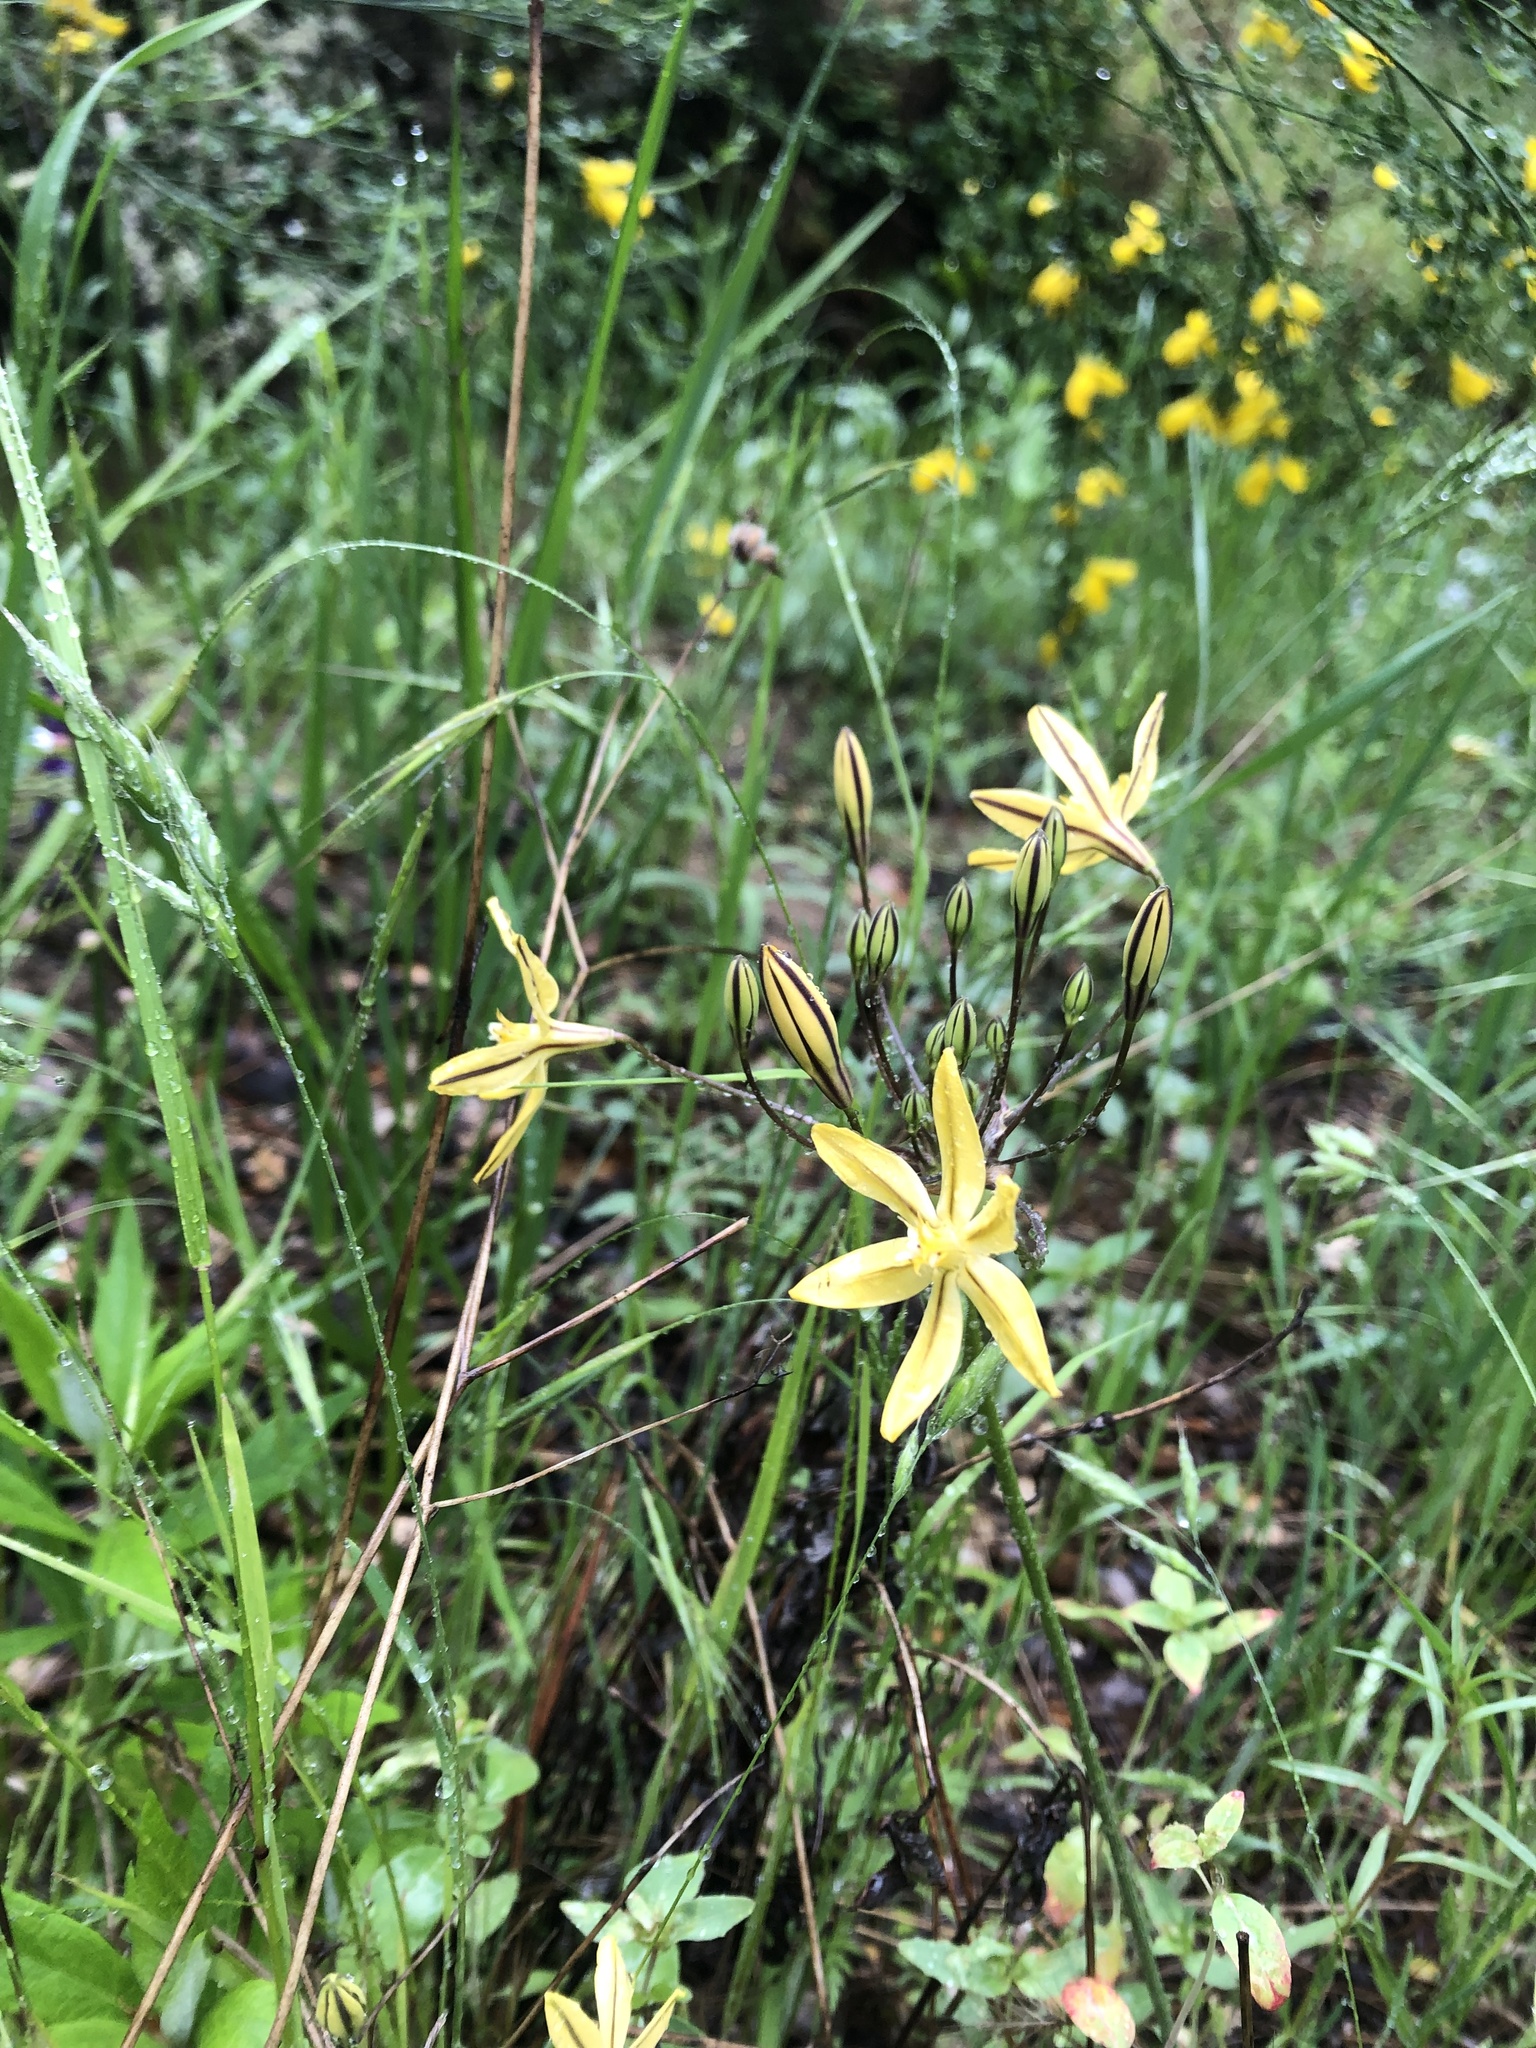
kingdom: Plantae
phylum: Tracheophyta
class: Liliopsida
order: Asparagales
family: Asparagaceae
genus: Triteleia
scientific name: Triteleia ixioides
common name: Yellow-brodiaea
